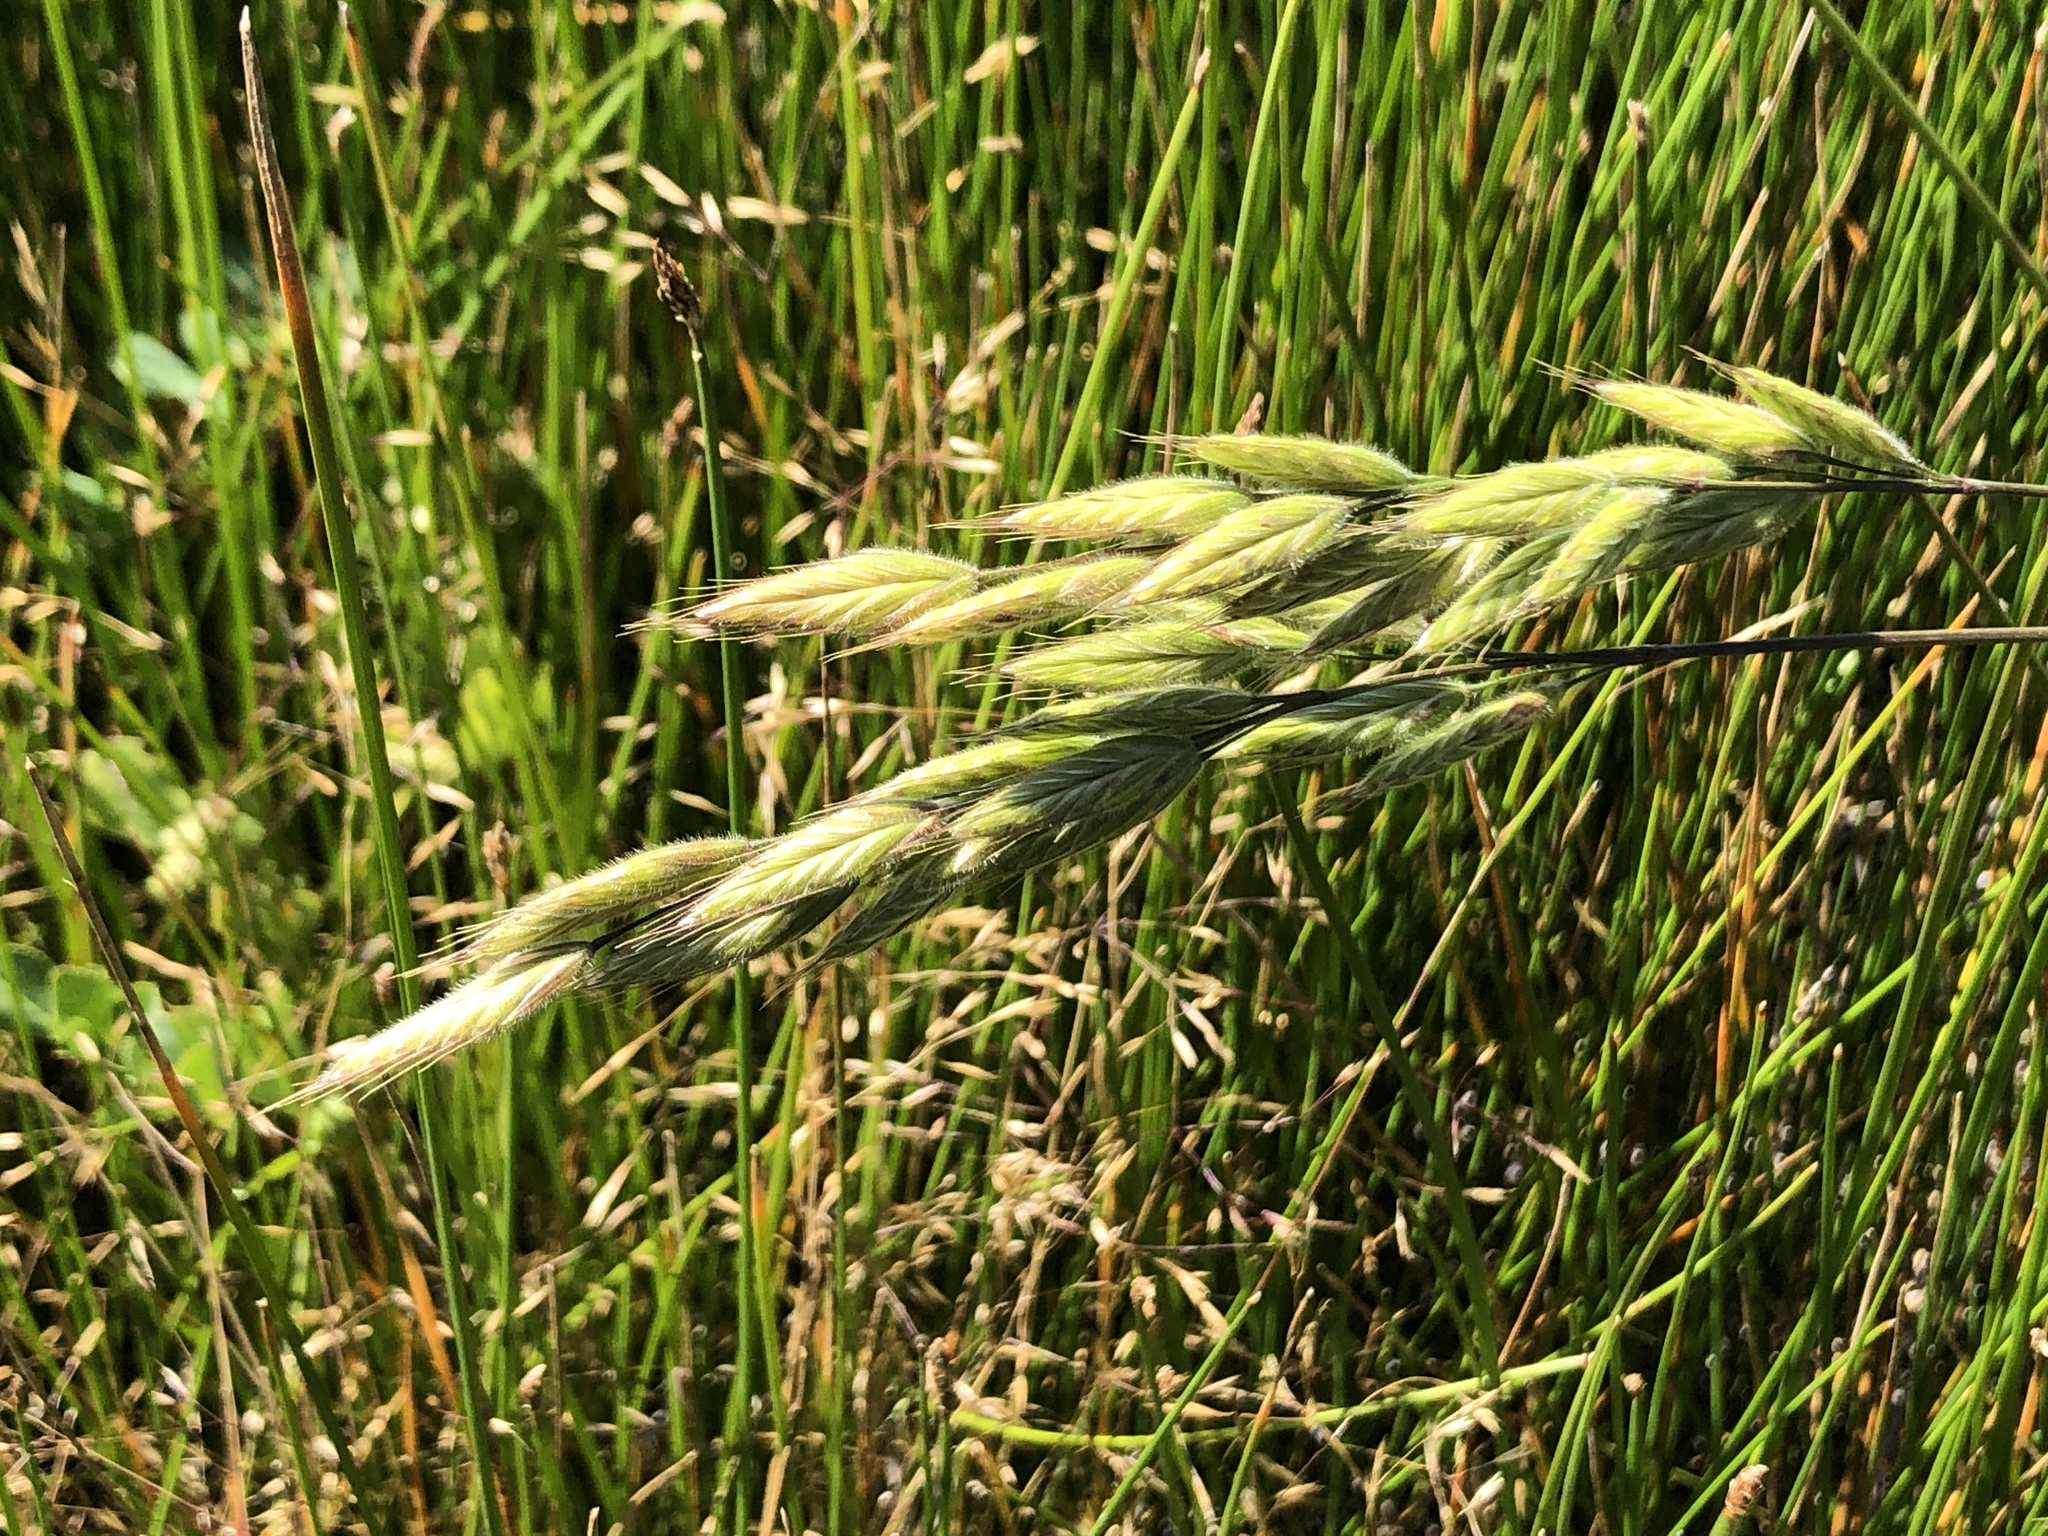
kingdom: Plantae
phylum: Tracheophyta
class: Liliopsida
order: Poales
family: Poaceae
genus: Bromus
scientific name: Bromus hordeaceus
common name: Soft brome
